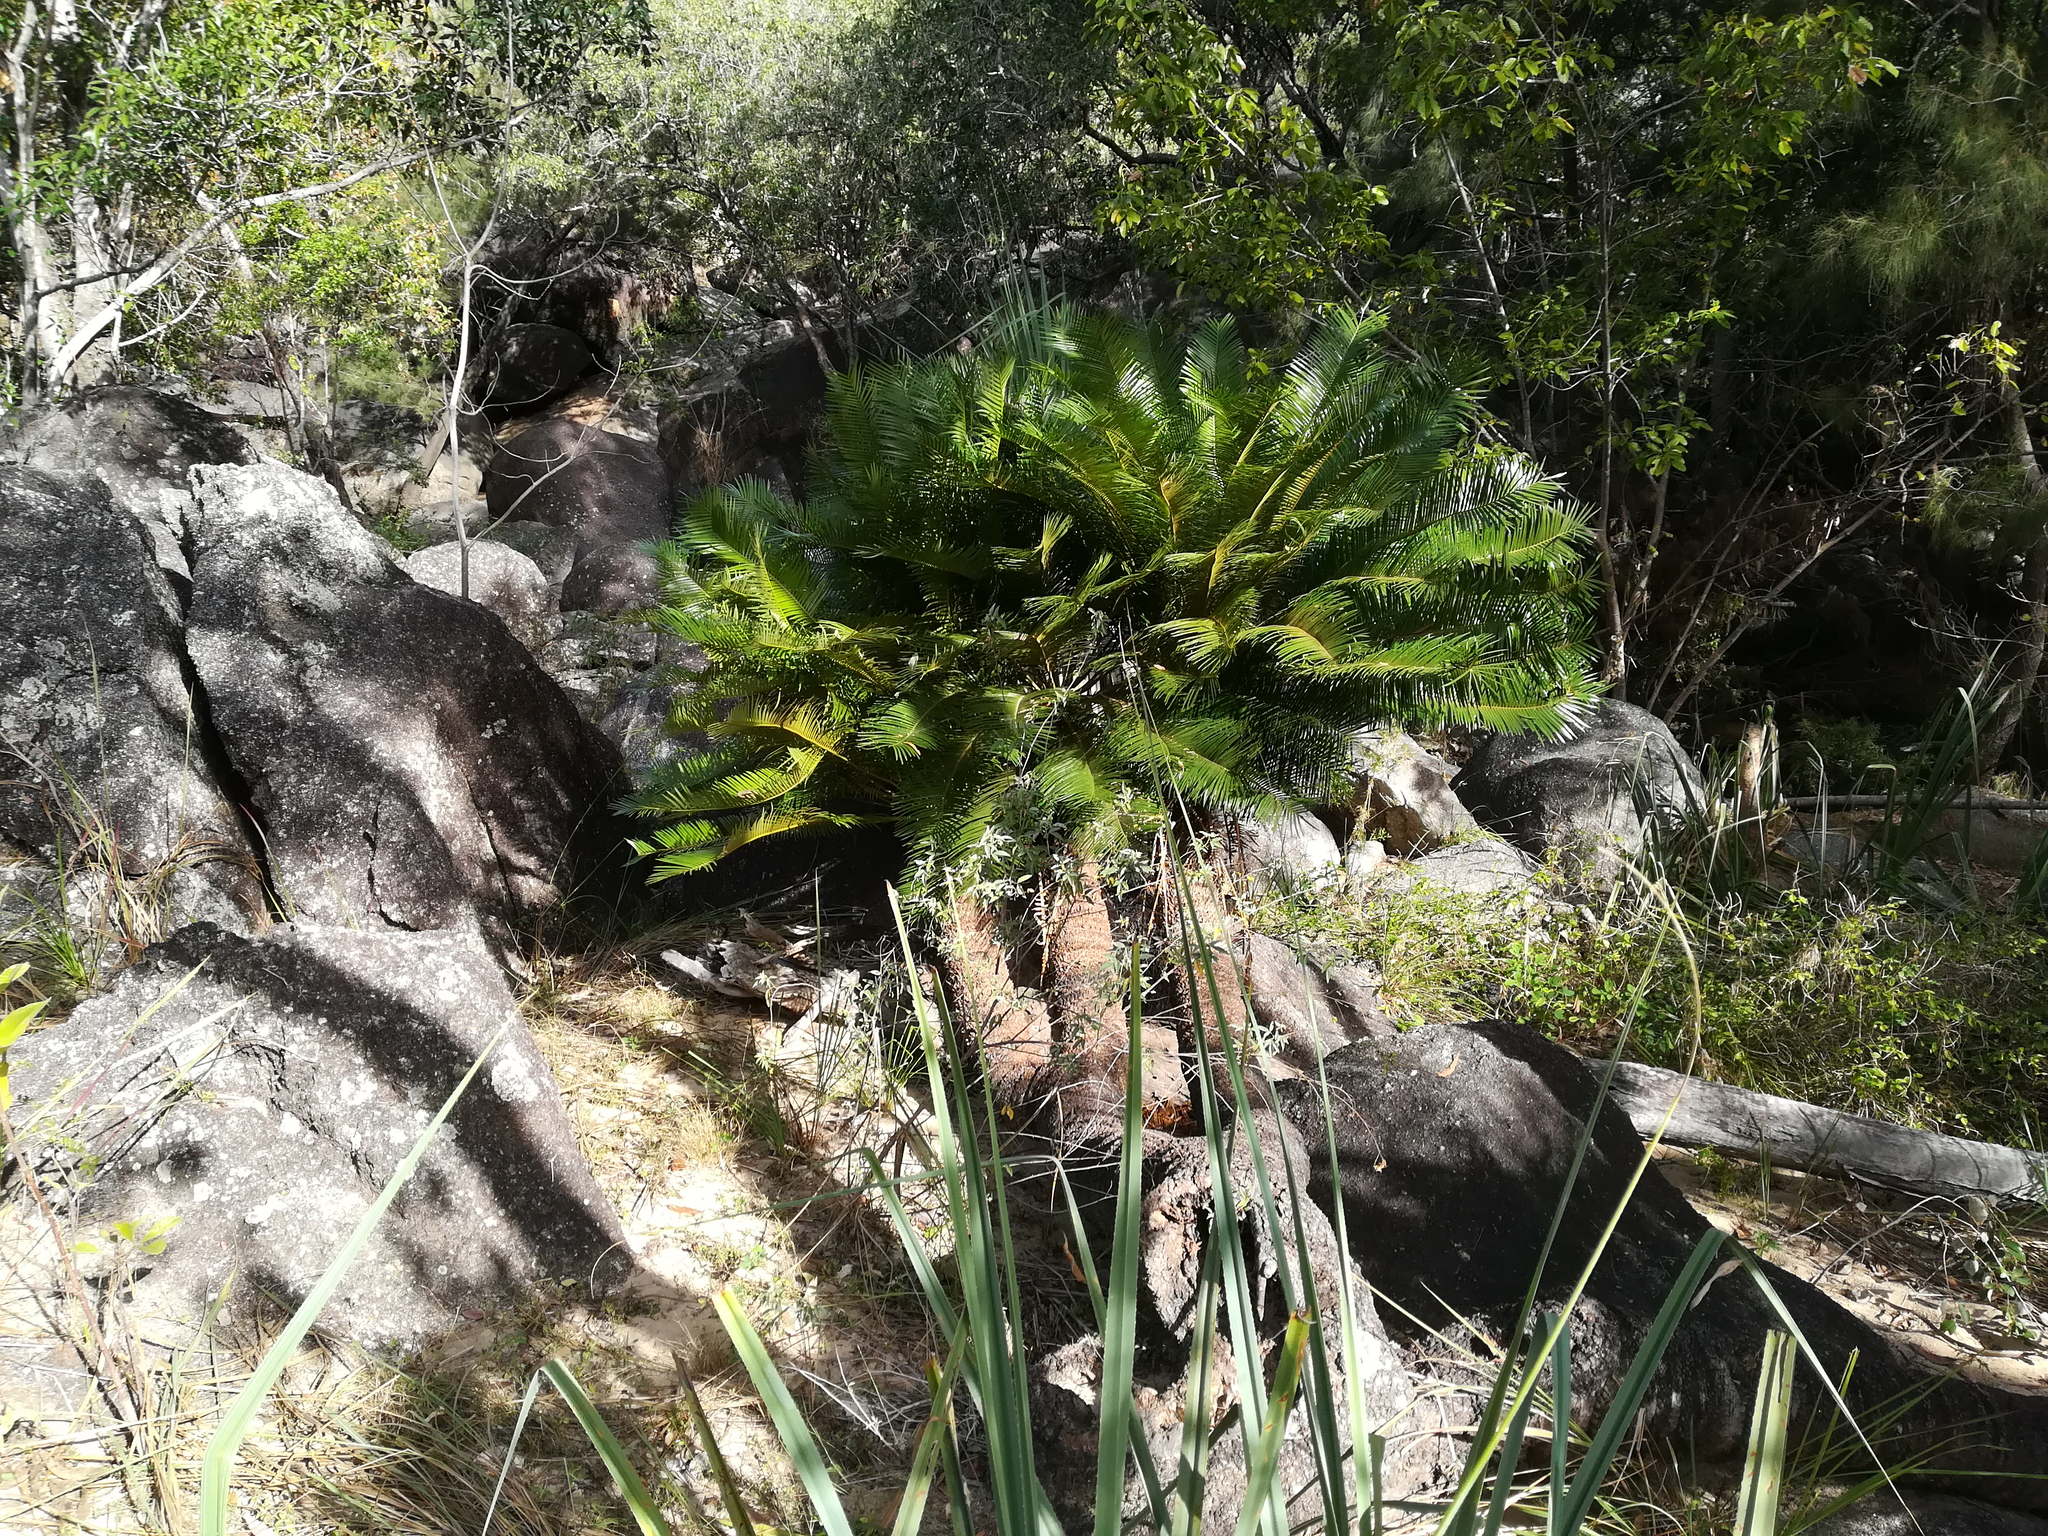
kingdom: Plantae
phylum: Tracheophyta
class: Cycadopsida
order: Cycadales
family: Cycadaceae
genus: Cycas
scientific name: Cycas media
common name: Queensland cycas
